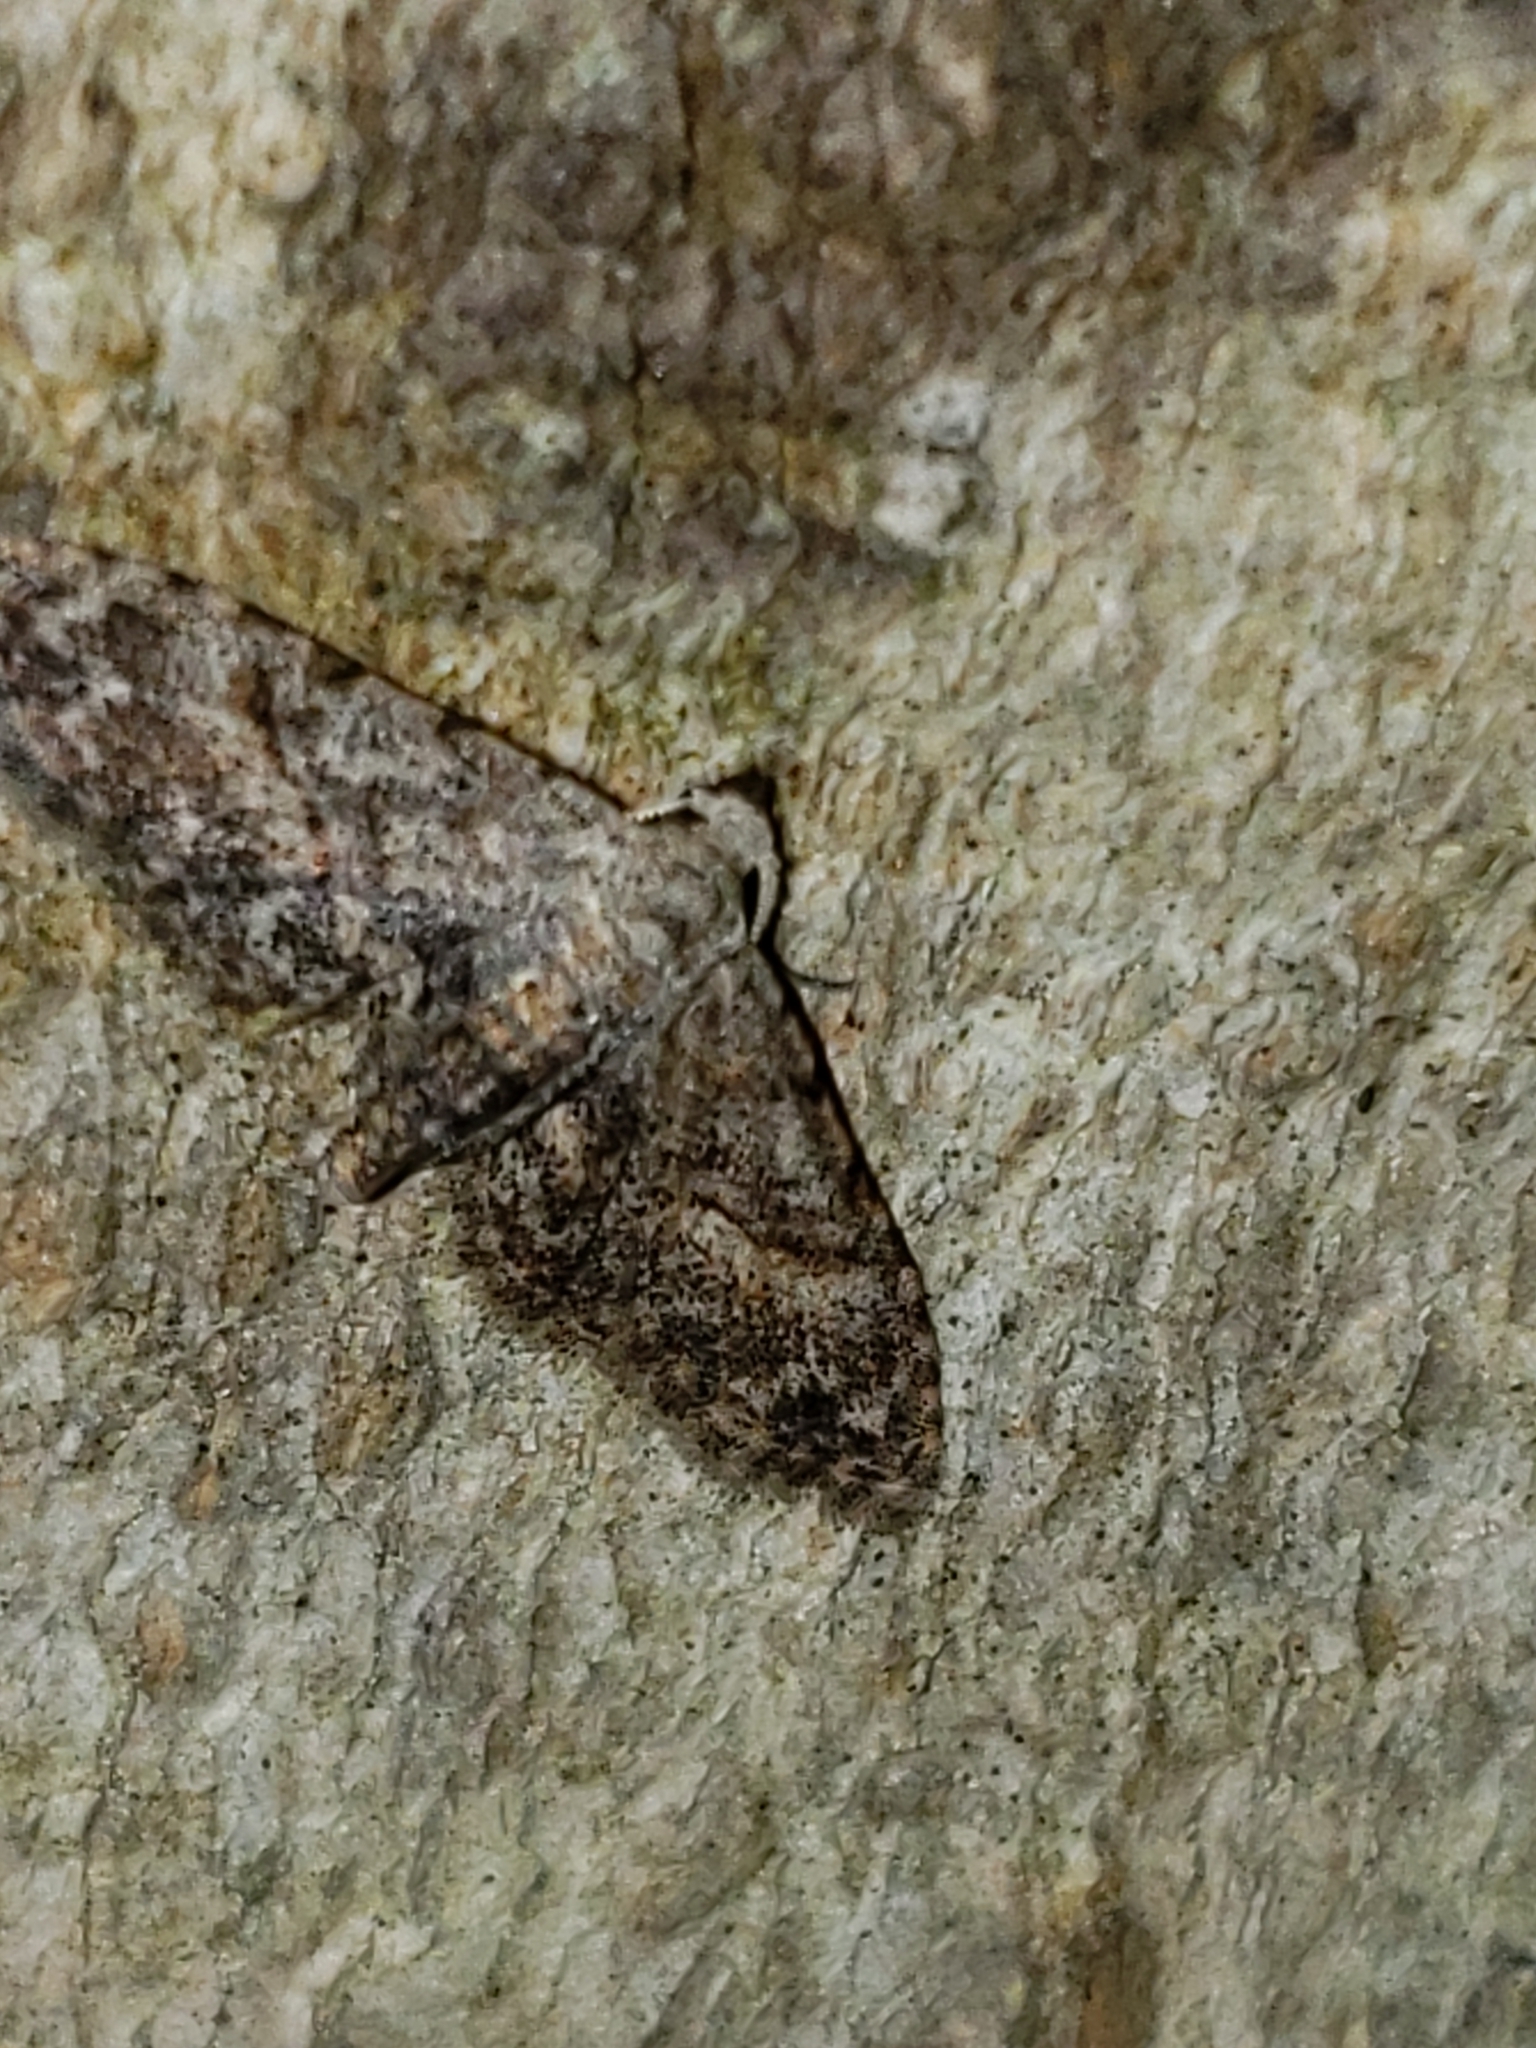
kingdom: Animalia
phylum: Arthropoda
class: Insecta
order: Lepidoptera
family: Erebidae
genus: Sigela
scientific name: Sigela brauneata
